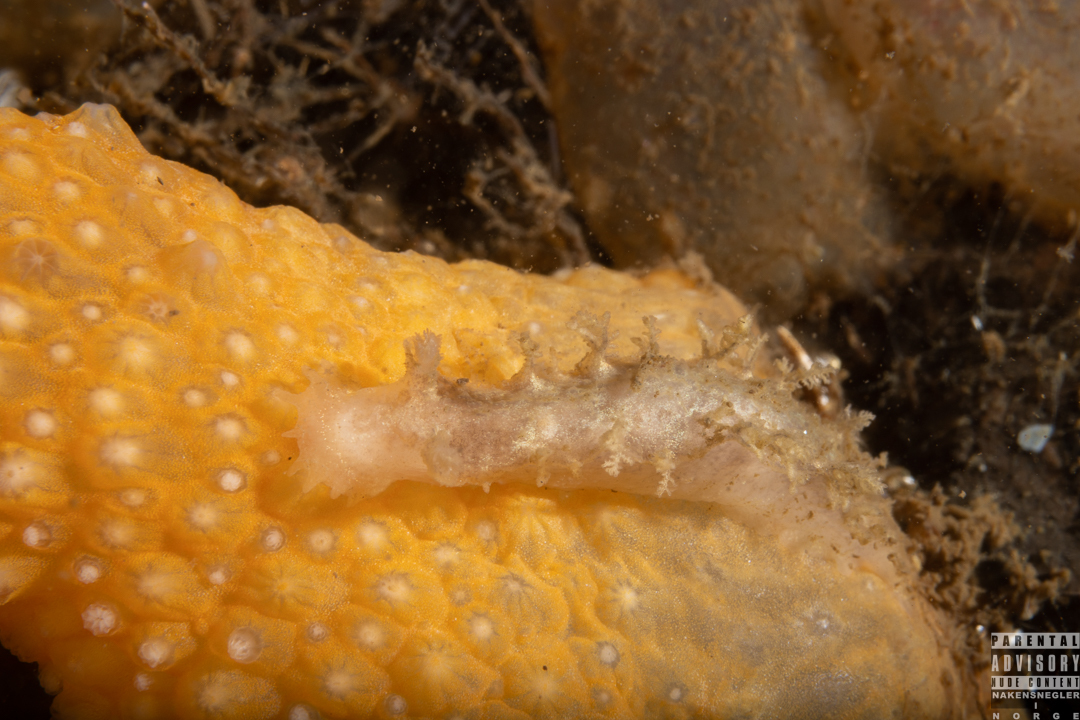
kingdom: Animalia
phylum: Mollusca
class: Gastropoda
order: Nudibranchia
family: Tritoniidae
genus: Duvaucelia
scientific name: Duvaucelia plebeia
